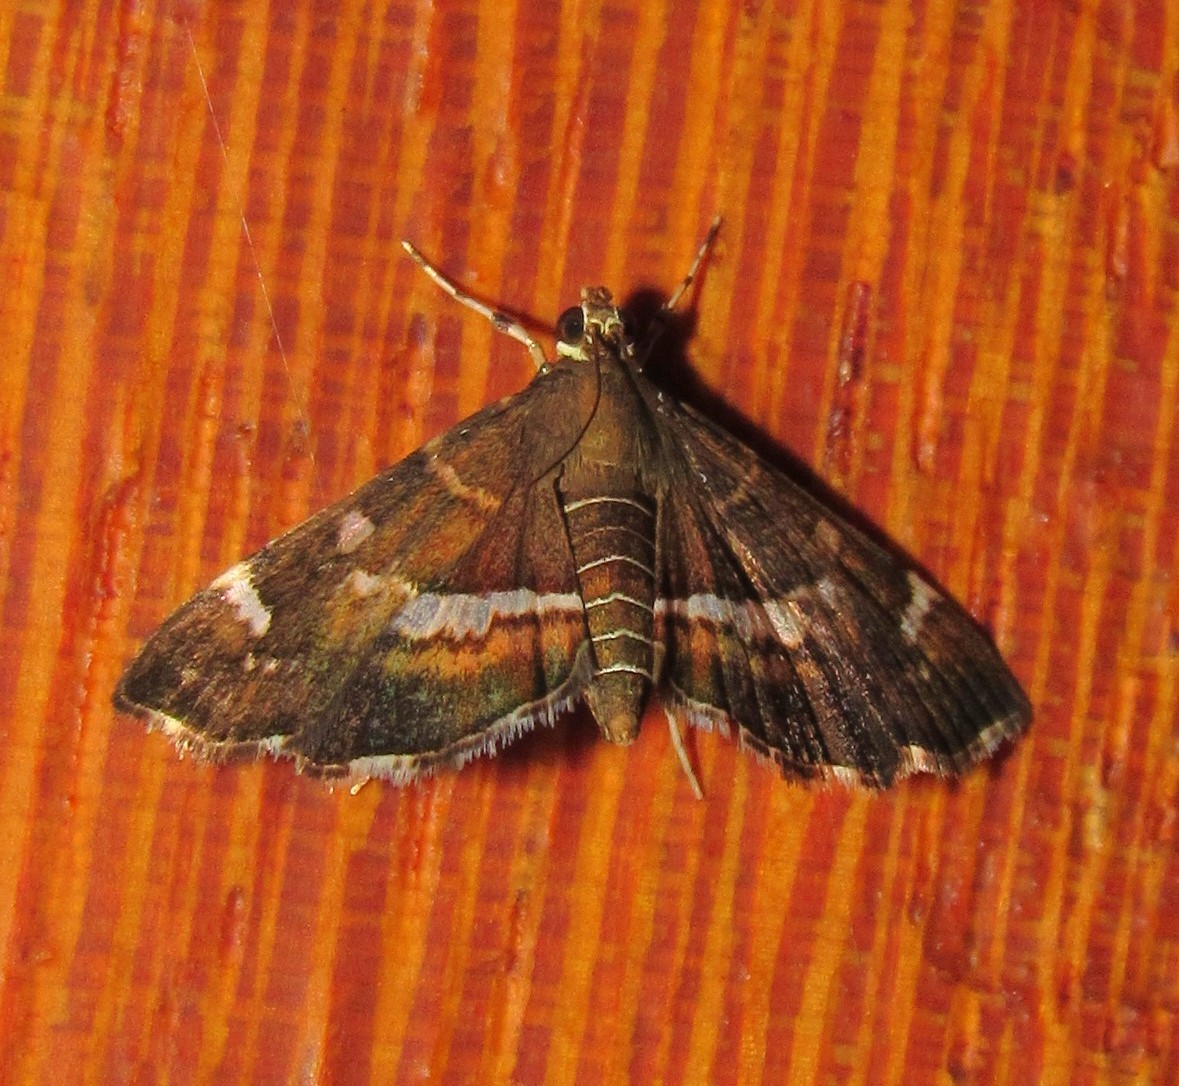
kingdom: Animalia
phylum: Arthropoda
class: Insecta
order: Lepidoptera
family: Crambidae
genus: Hymenia
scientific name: Hymenia perspectalis
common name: Spotted beet webworm
